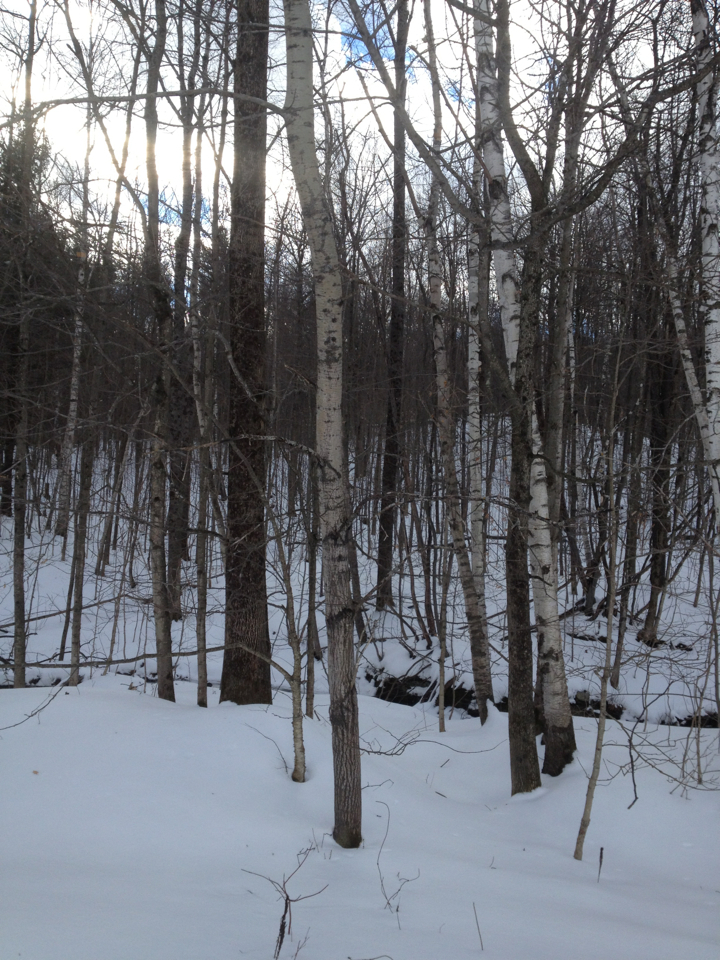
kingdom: Plantae
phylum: Tracheophyta
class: Magnoliopsida
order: Rosales
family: Rosaceae
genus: Prunus
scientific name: Prunus serotina
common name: Black cherry
